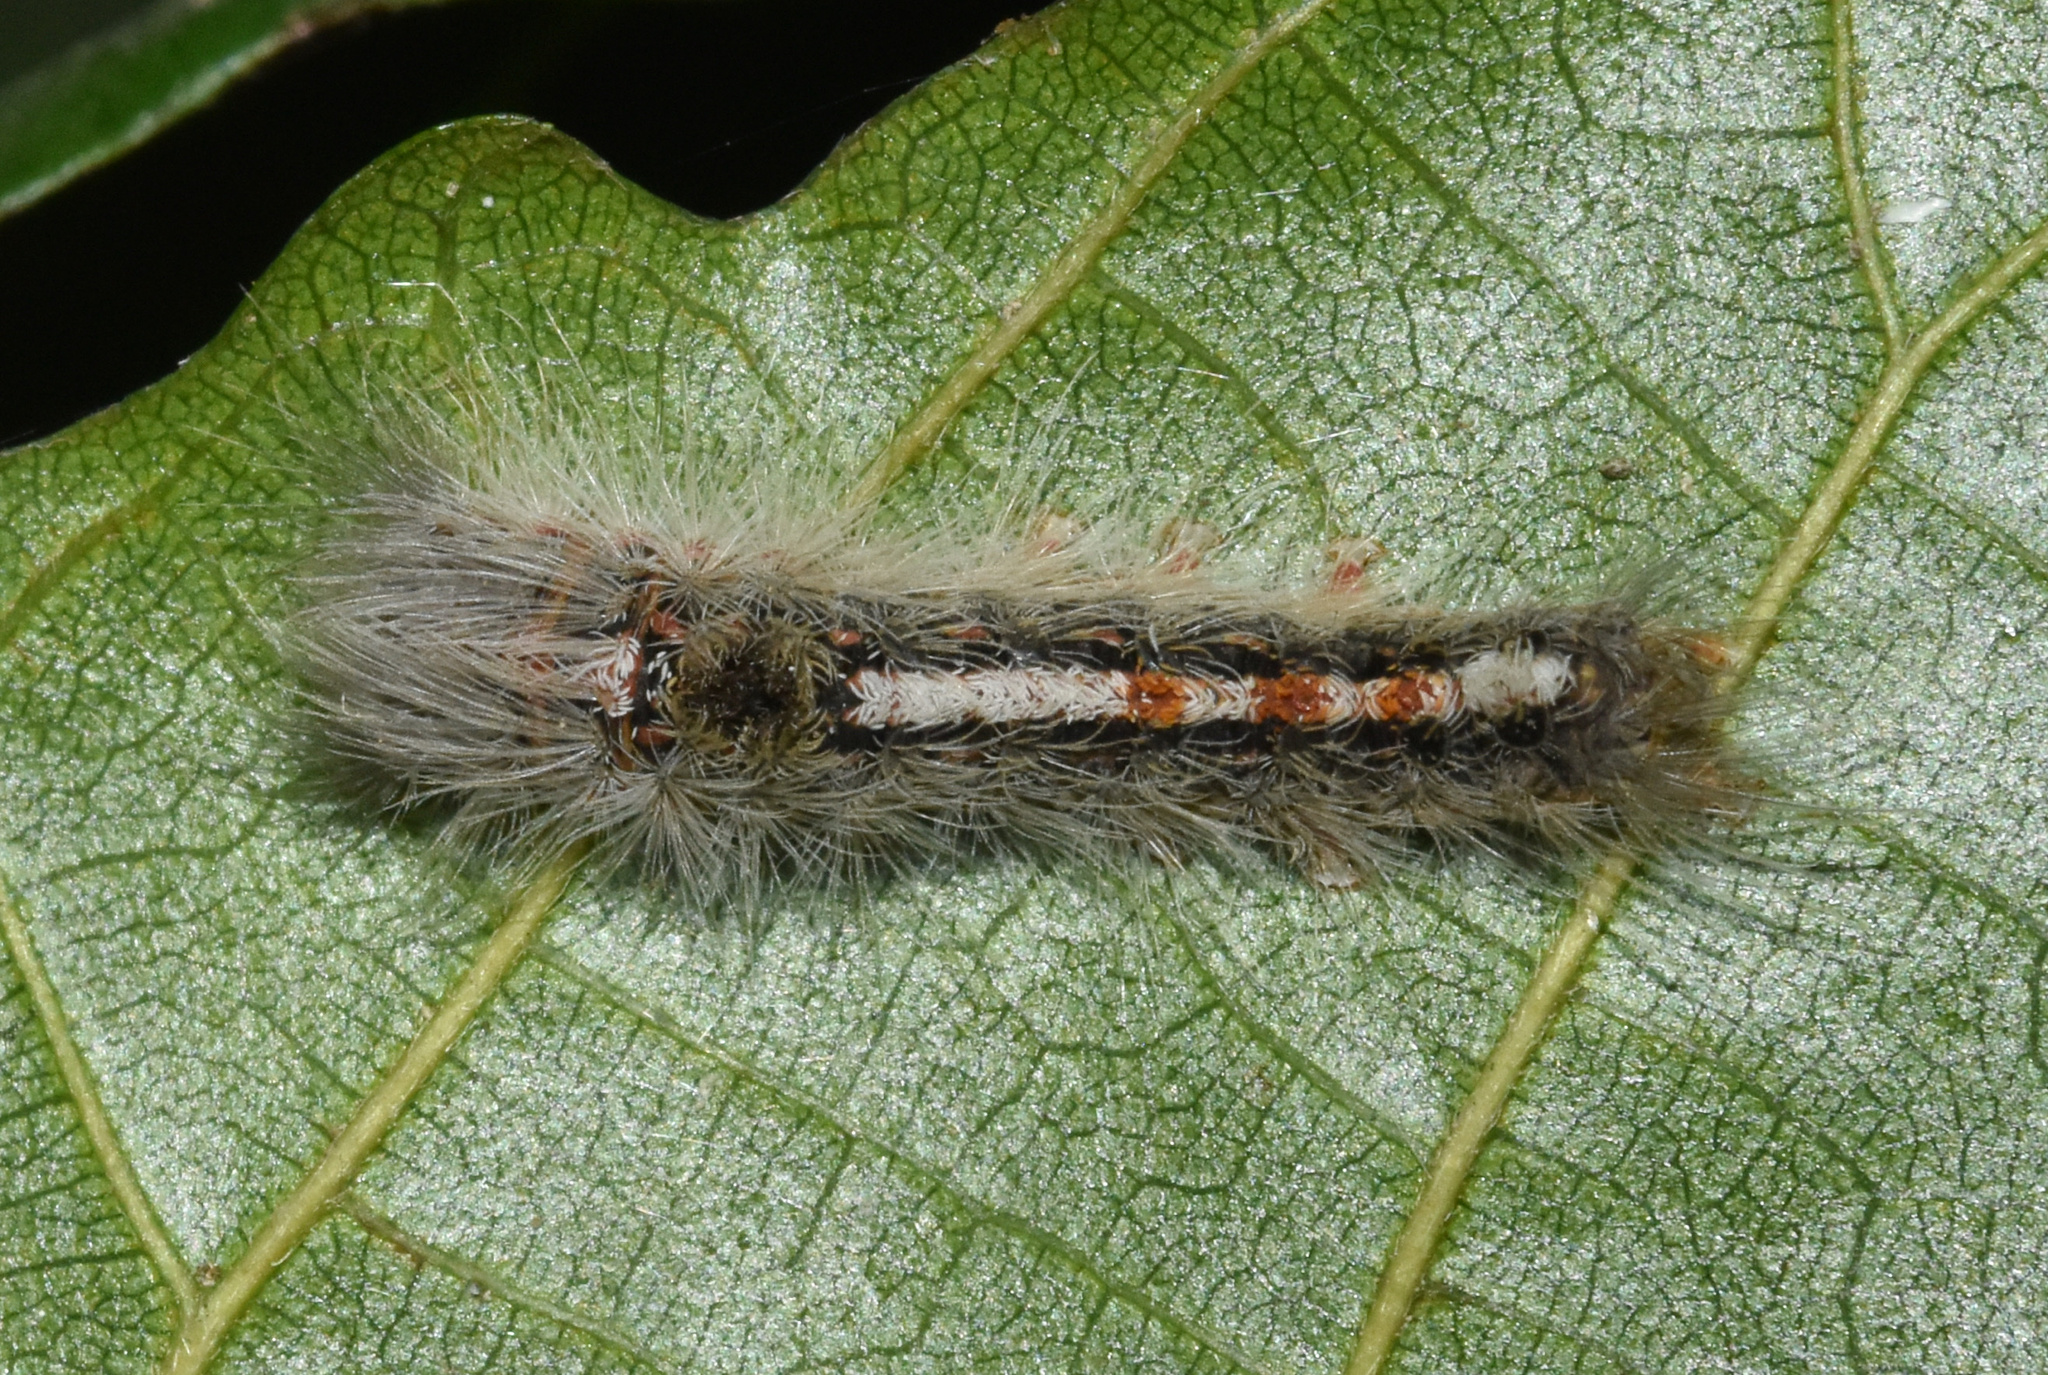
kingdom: Animalia
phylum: Arthropoda
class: Insecta
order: Lepidoptera
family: Erebidae
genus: Euproctis
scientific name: Euproctis punctifera
